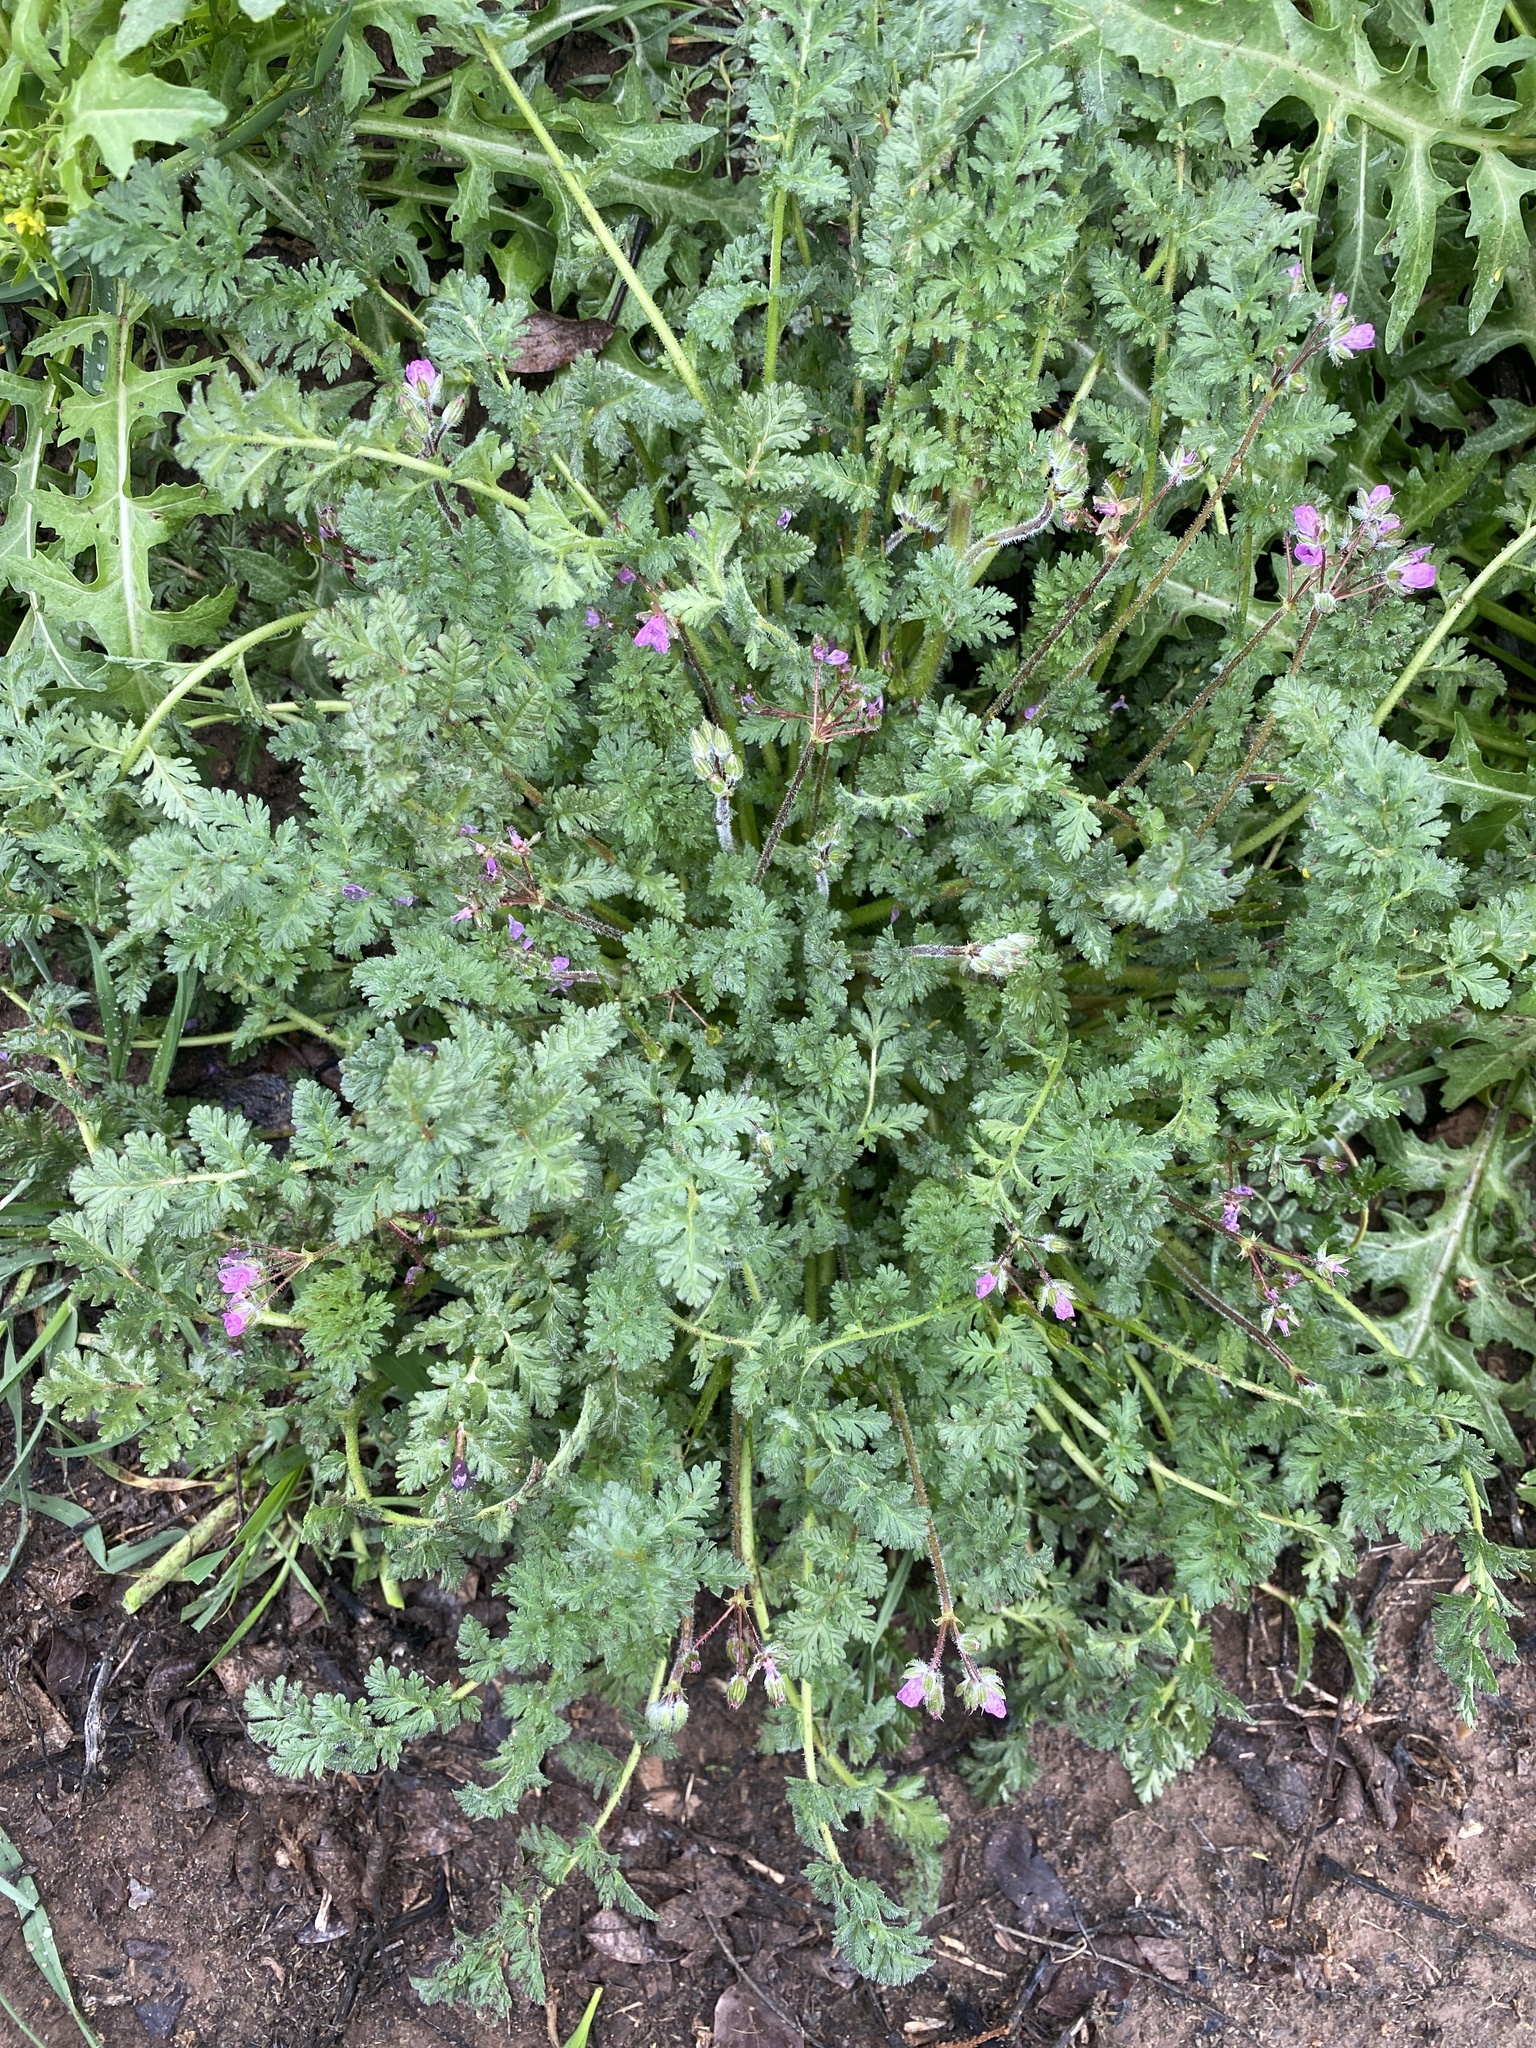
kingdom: Plantae
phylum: Tracheophyta
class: Magnoliopsida
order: Geraniales
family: Geraniaceae
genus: Erodium
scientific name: Erodium cicutarium
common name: Common stork's-bill
